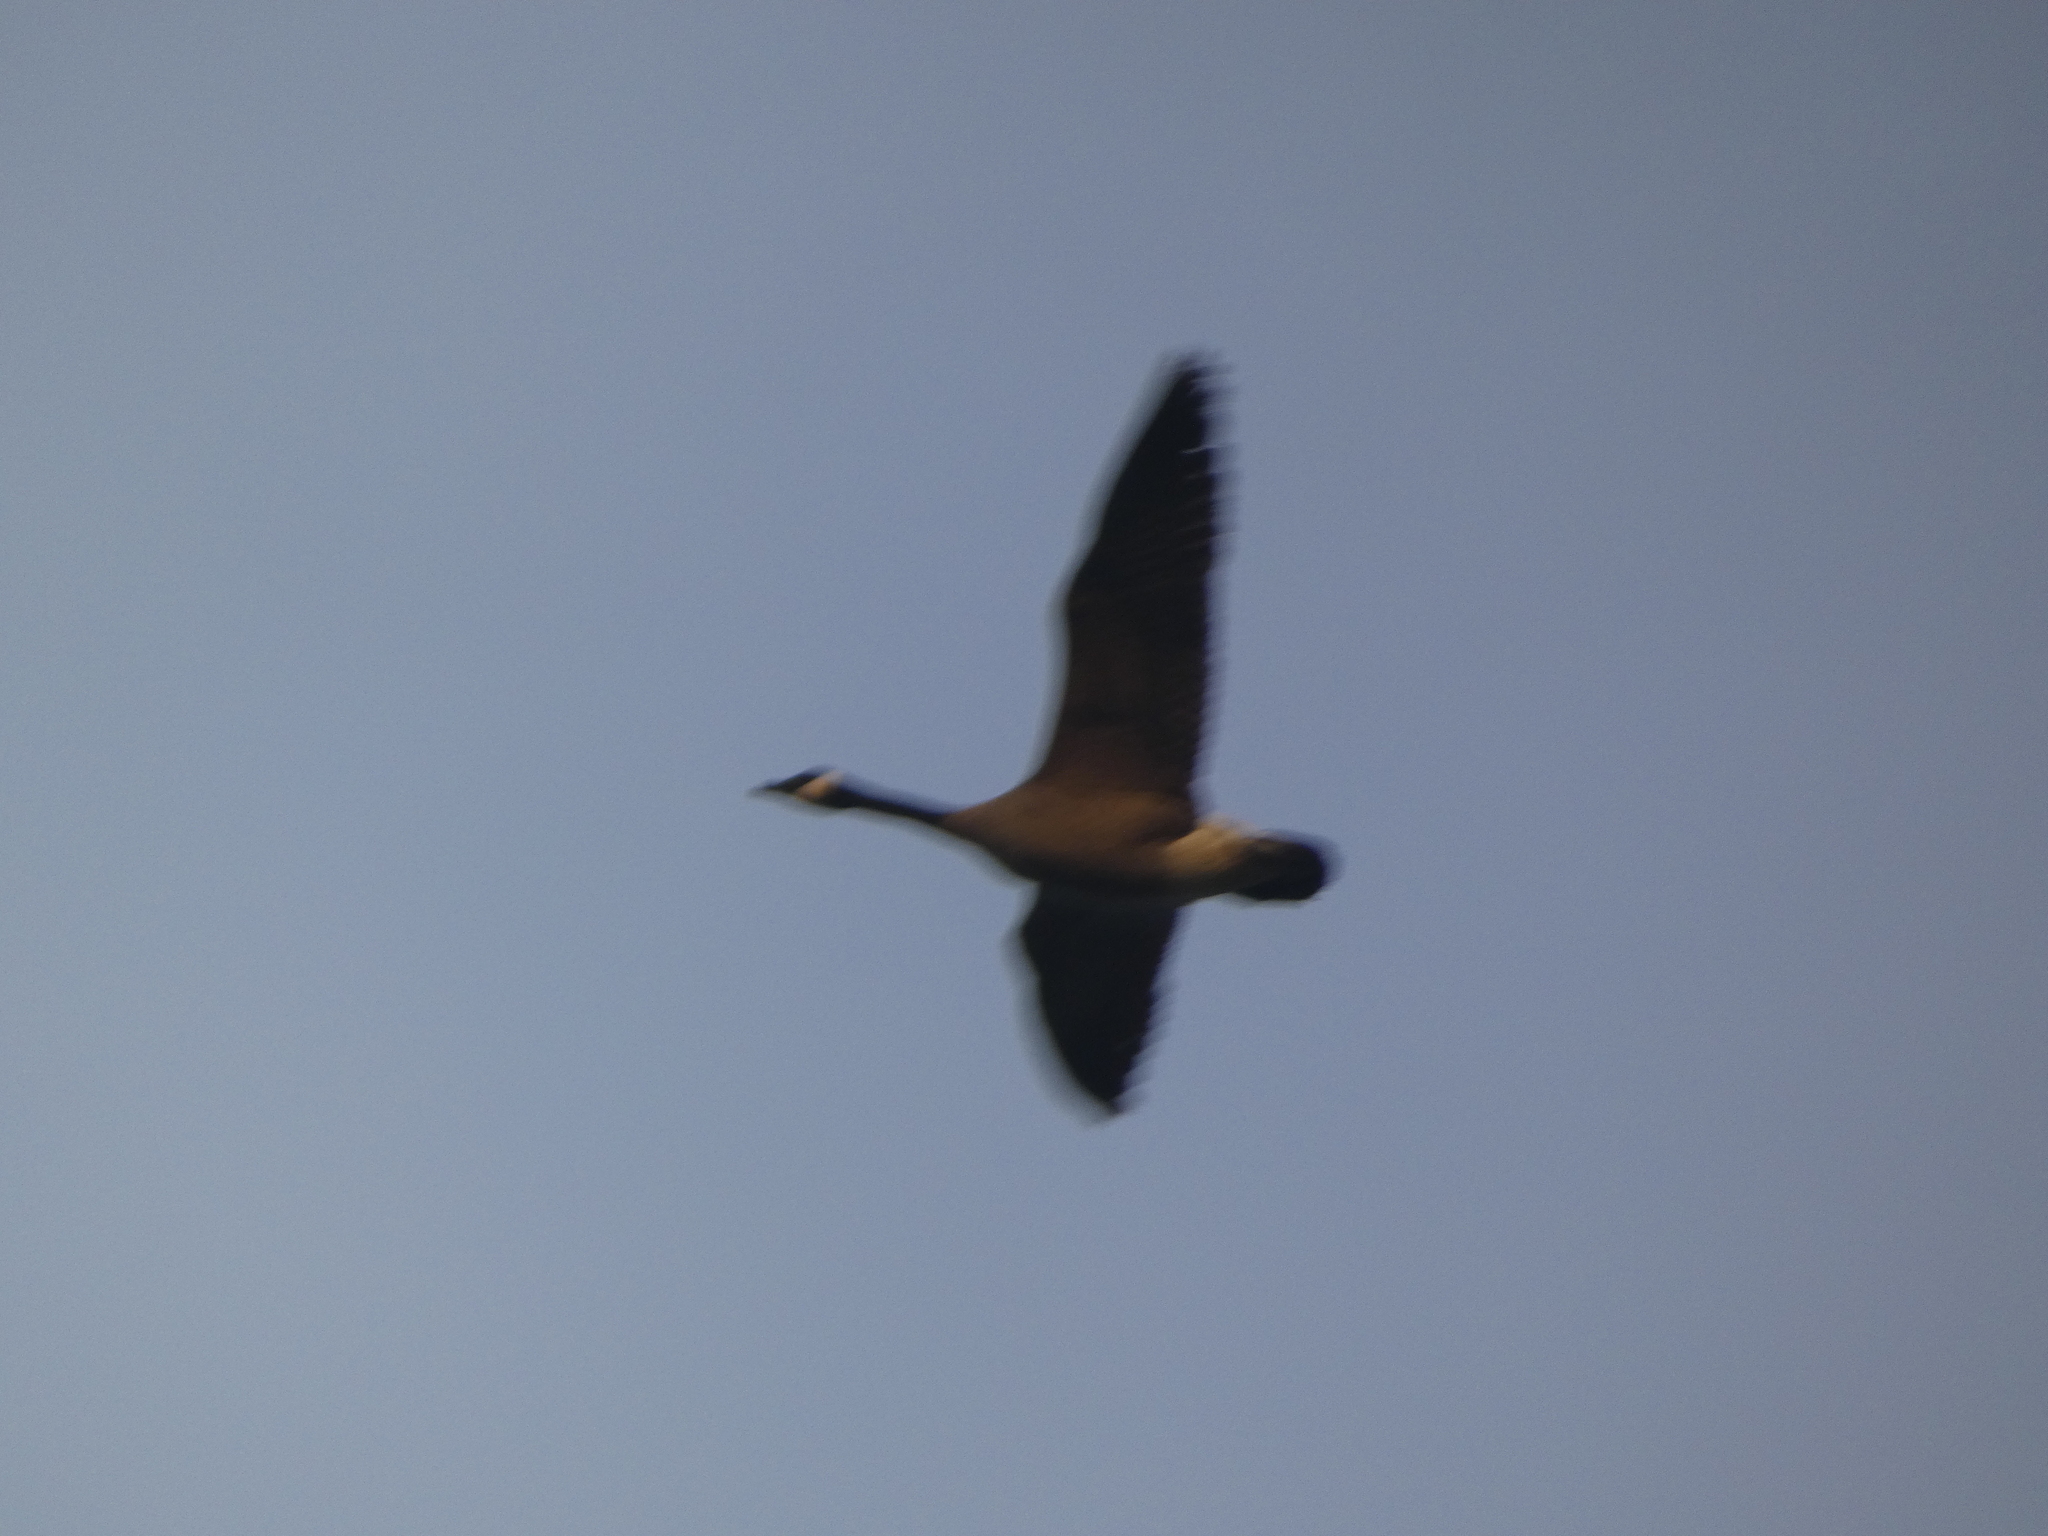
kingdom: Animalia
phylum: Chordata
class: Aves
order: Anseriformes
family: Anatidae
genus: Branta
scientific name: Branta canadensis
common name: Canada goose
